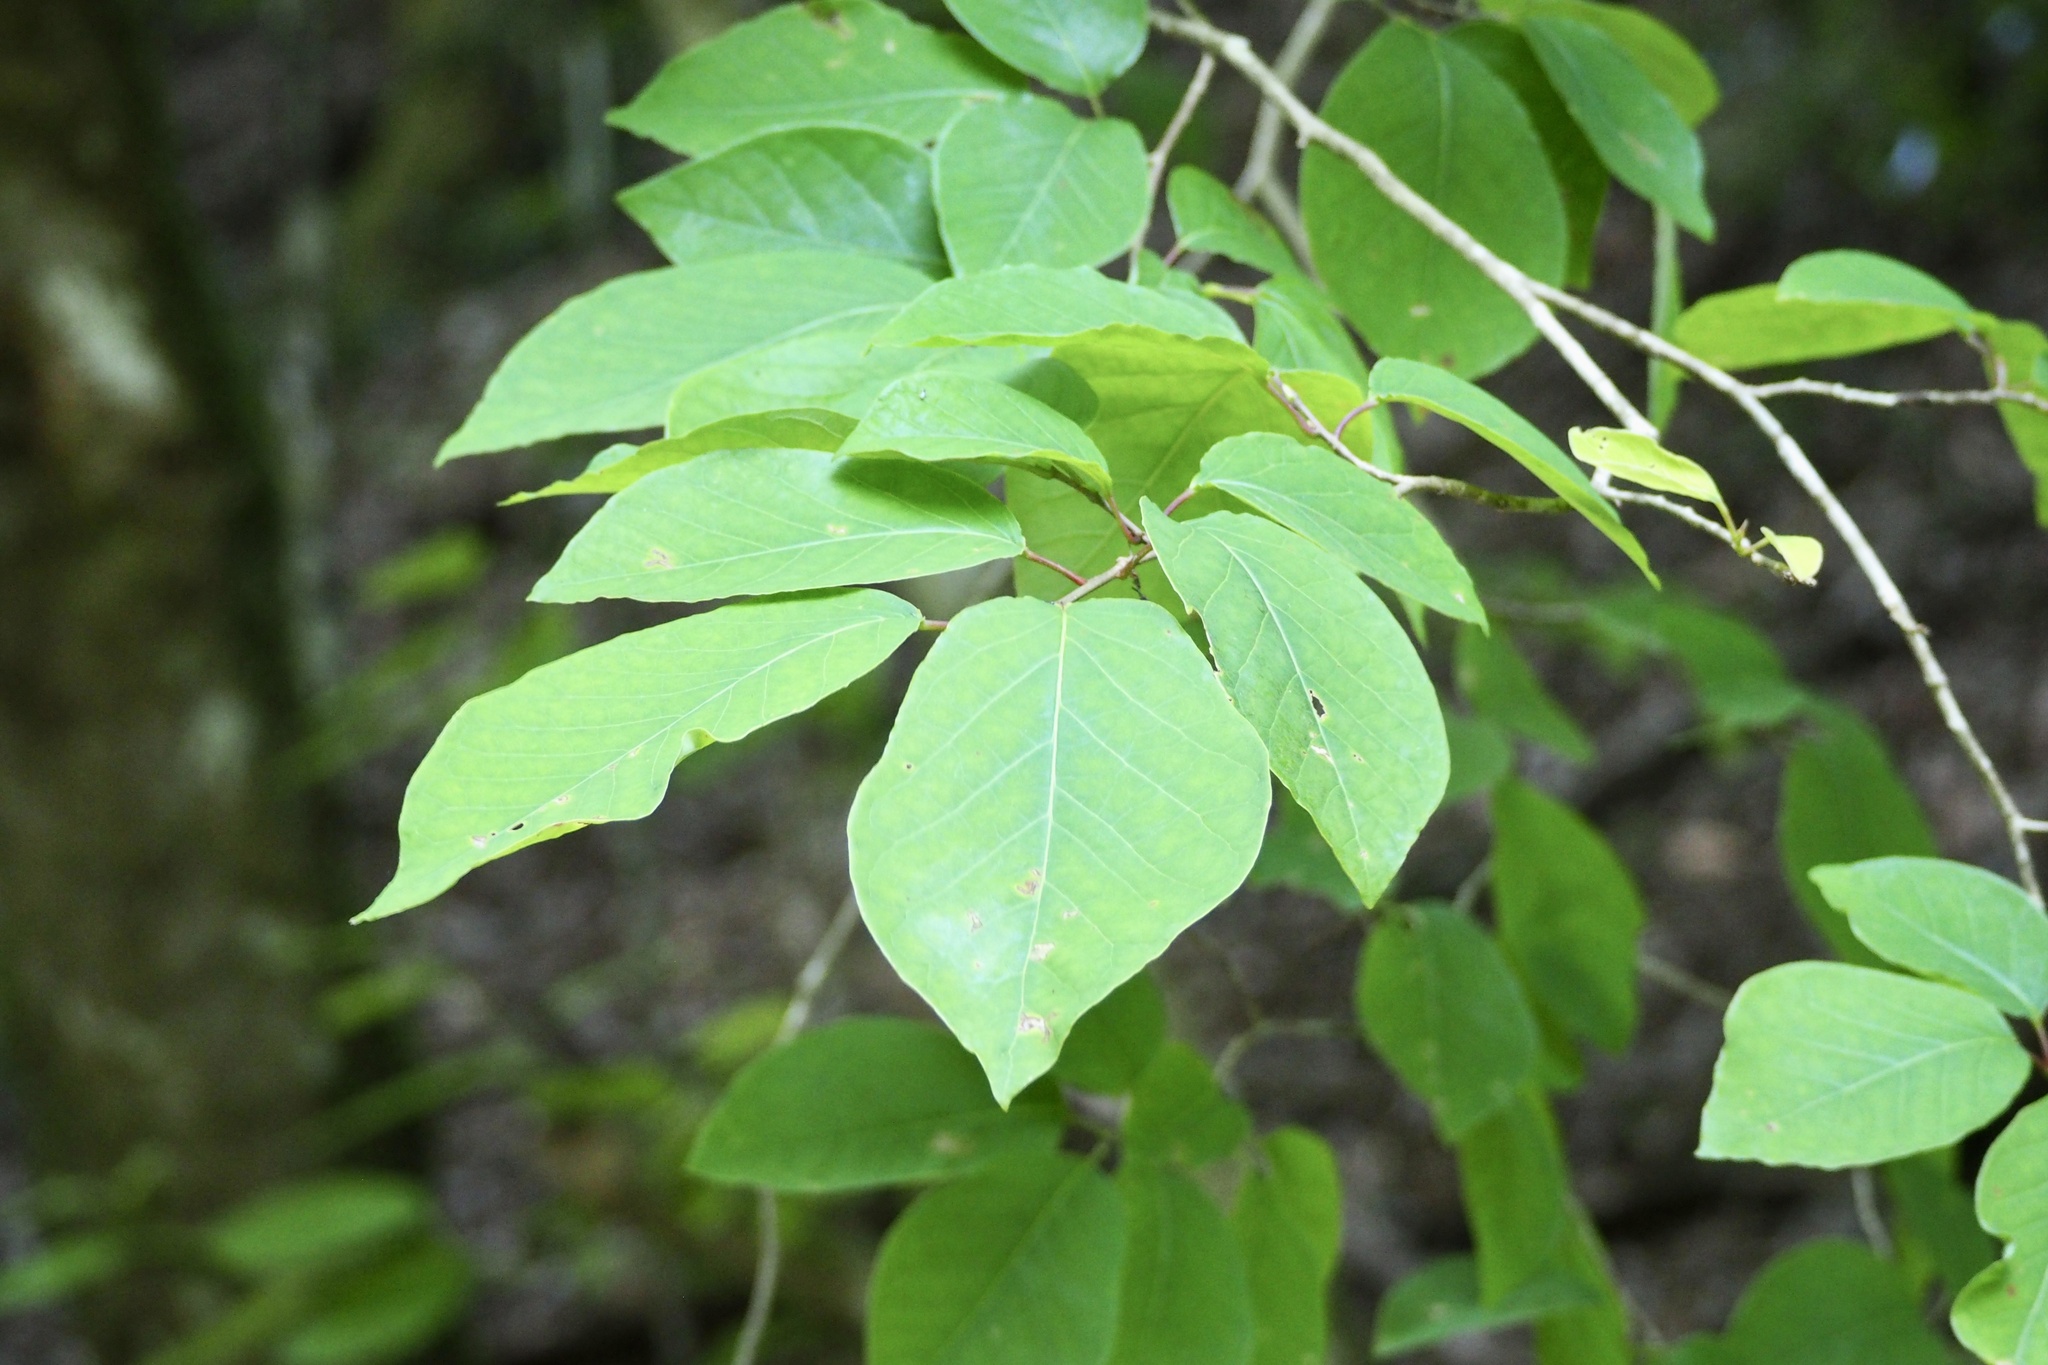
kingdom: Plantae
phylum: Tracheophyta
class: Magnoliopsida
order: Malpighiales
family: Euphorbiaceae
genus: Neoshirakia
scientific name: Neoshirakia japonica
